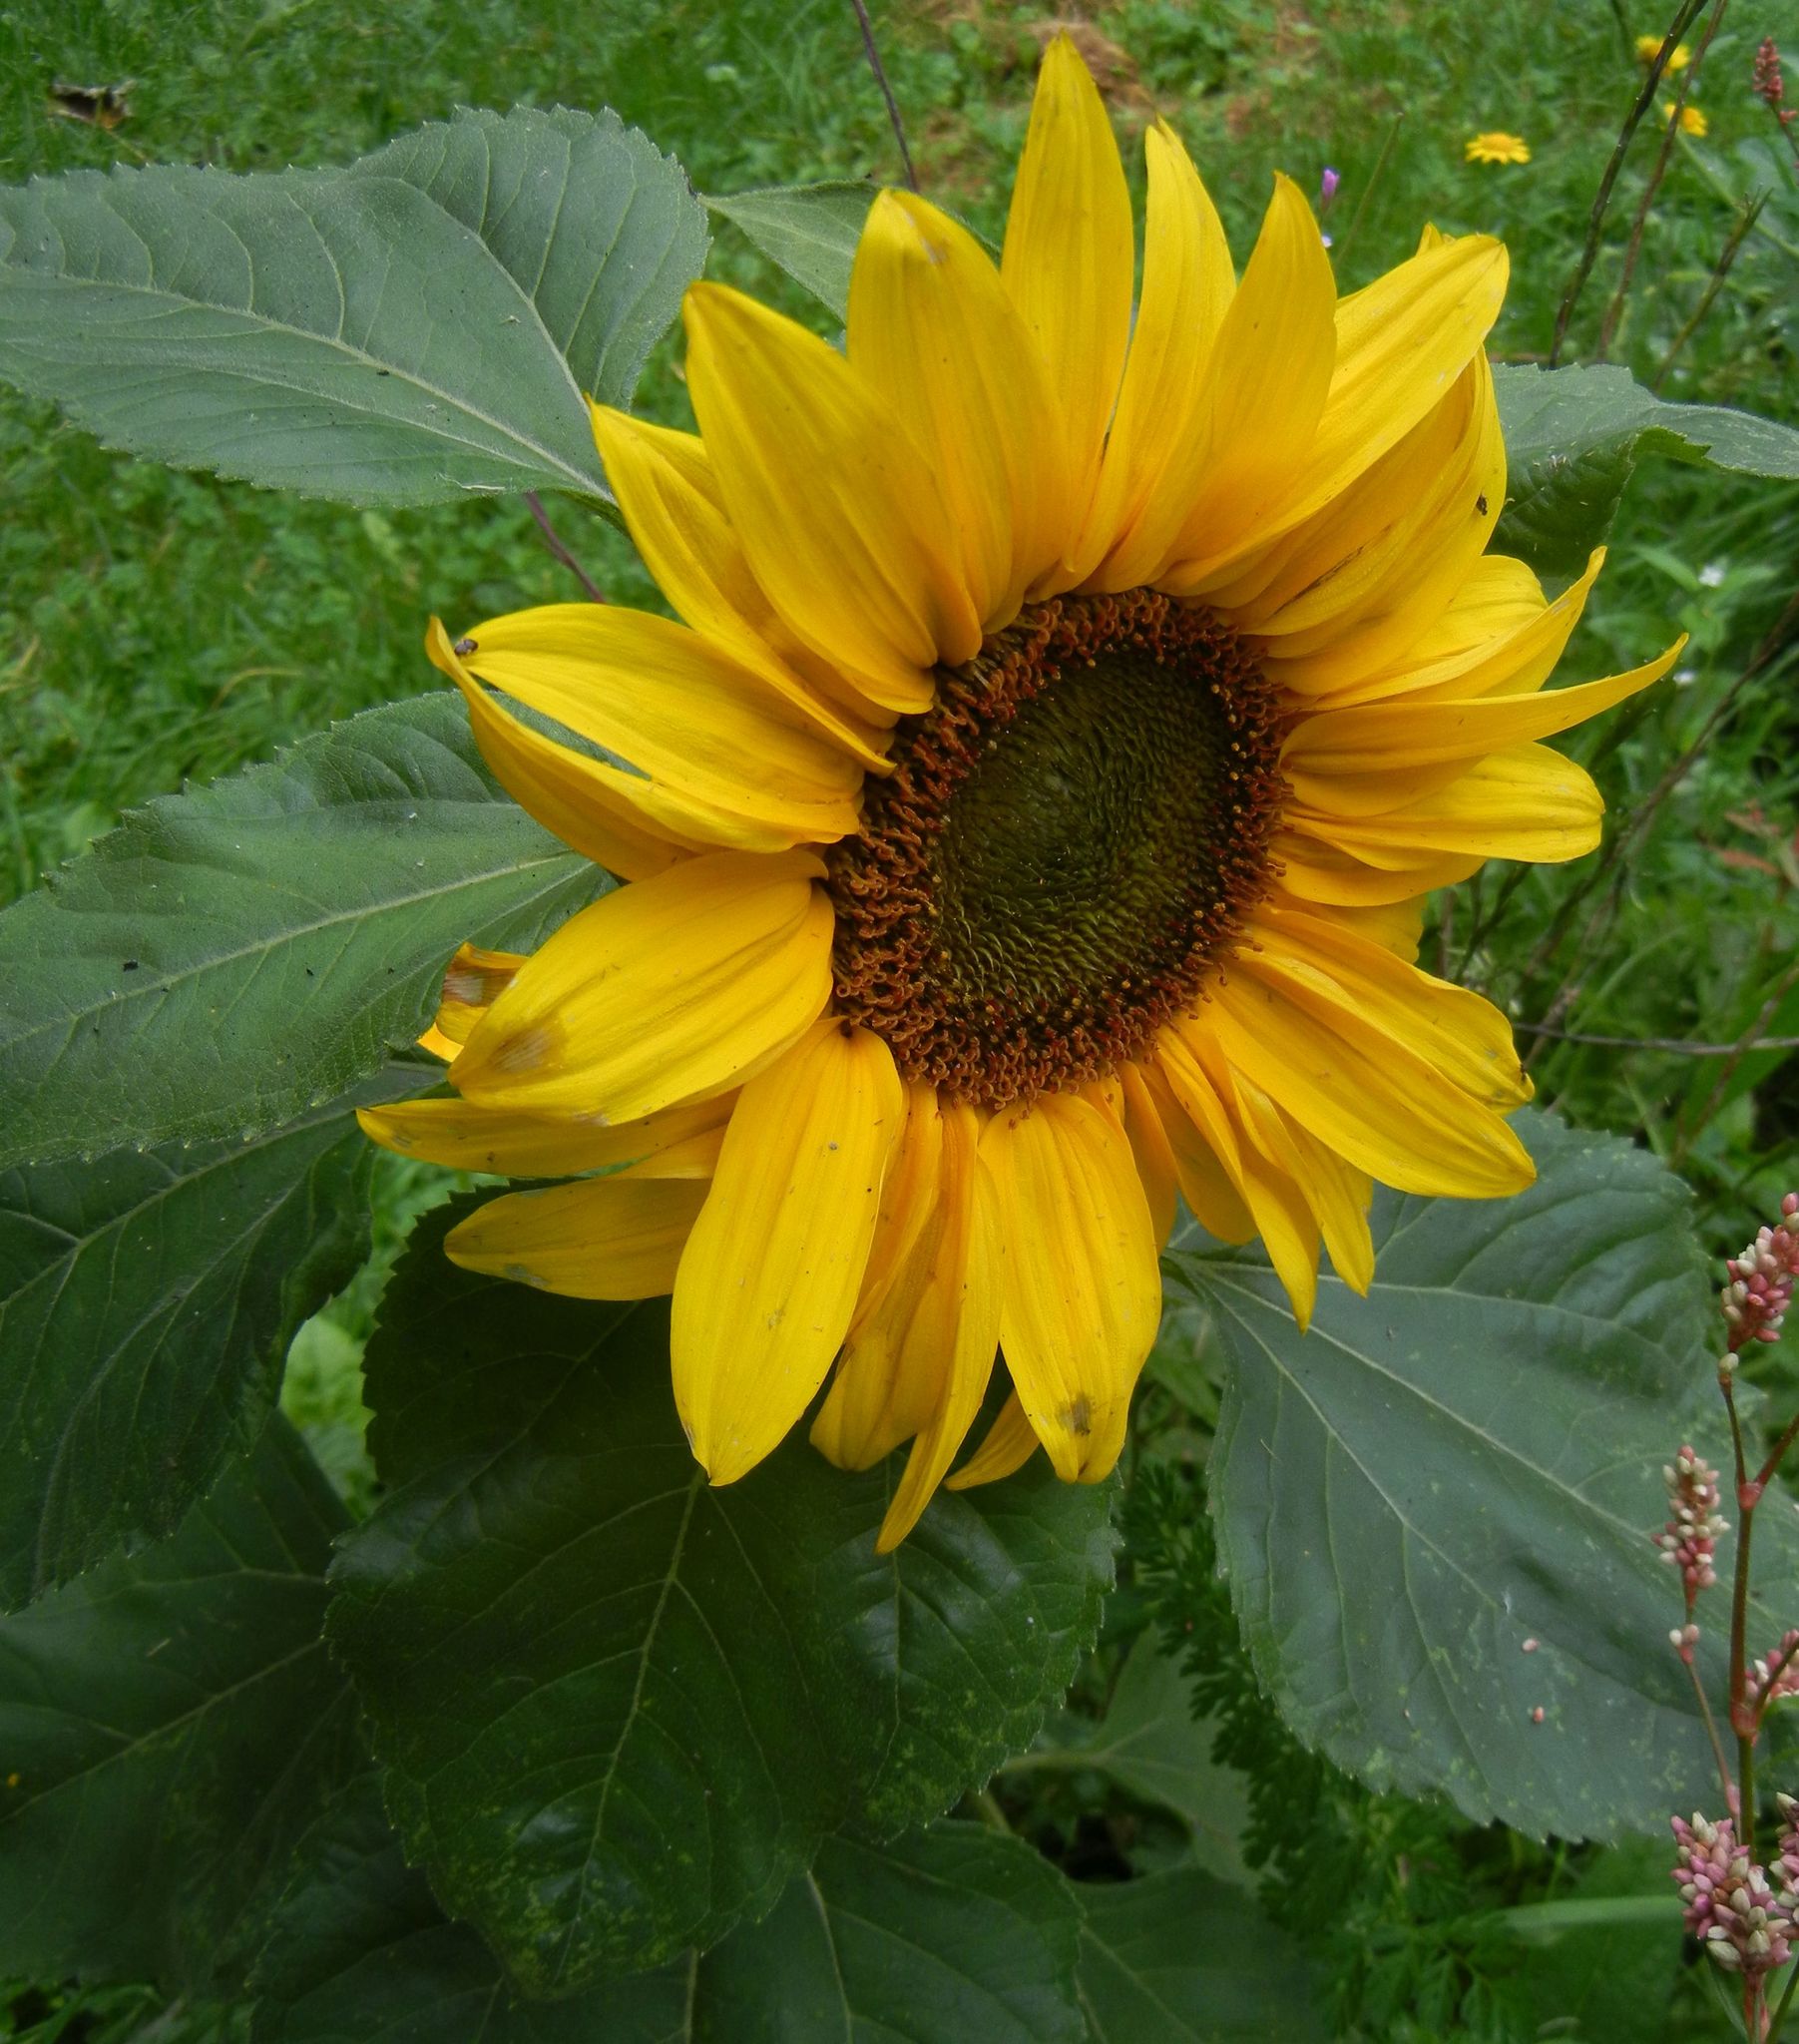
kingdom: Plantae
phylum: Tracheophyta
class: Magnoliopsida
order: Asterales
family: Asteraceae
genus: Helianthus
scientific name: Helianthus annuus
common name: Sunflower
